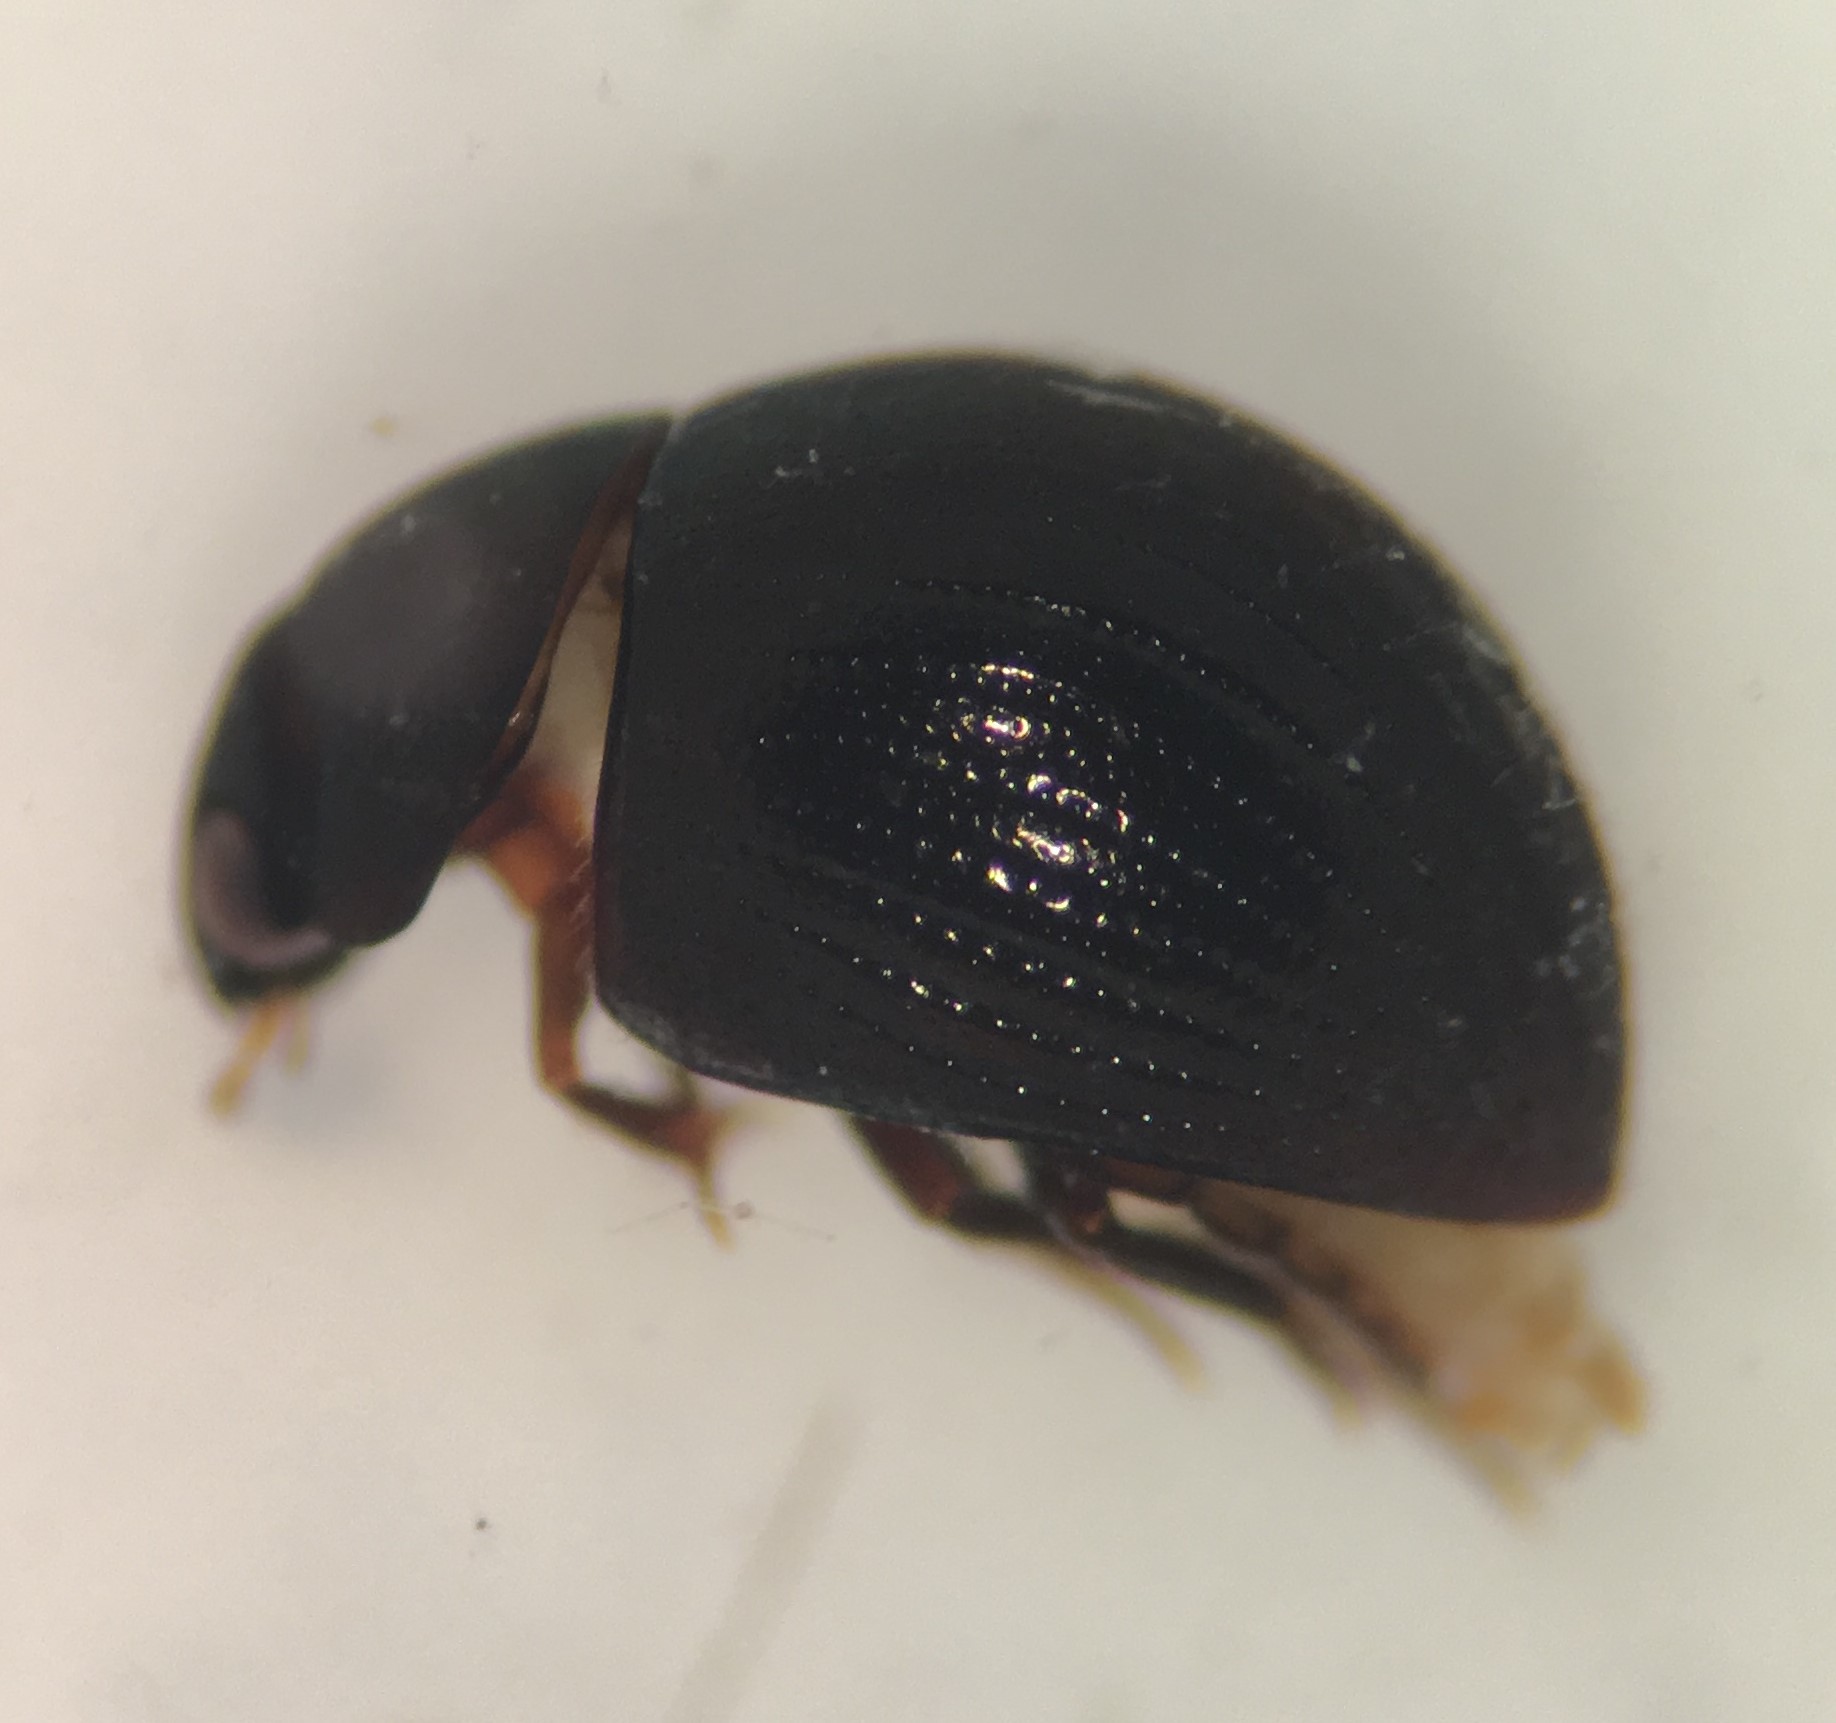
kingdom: Animalia
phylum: Arthropoda
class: Insecta
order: Coleoptera
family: Hydrophilidae
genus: Derallus
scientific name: Derallus altus
